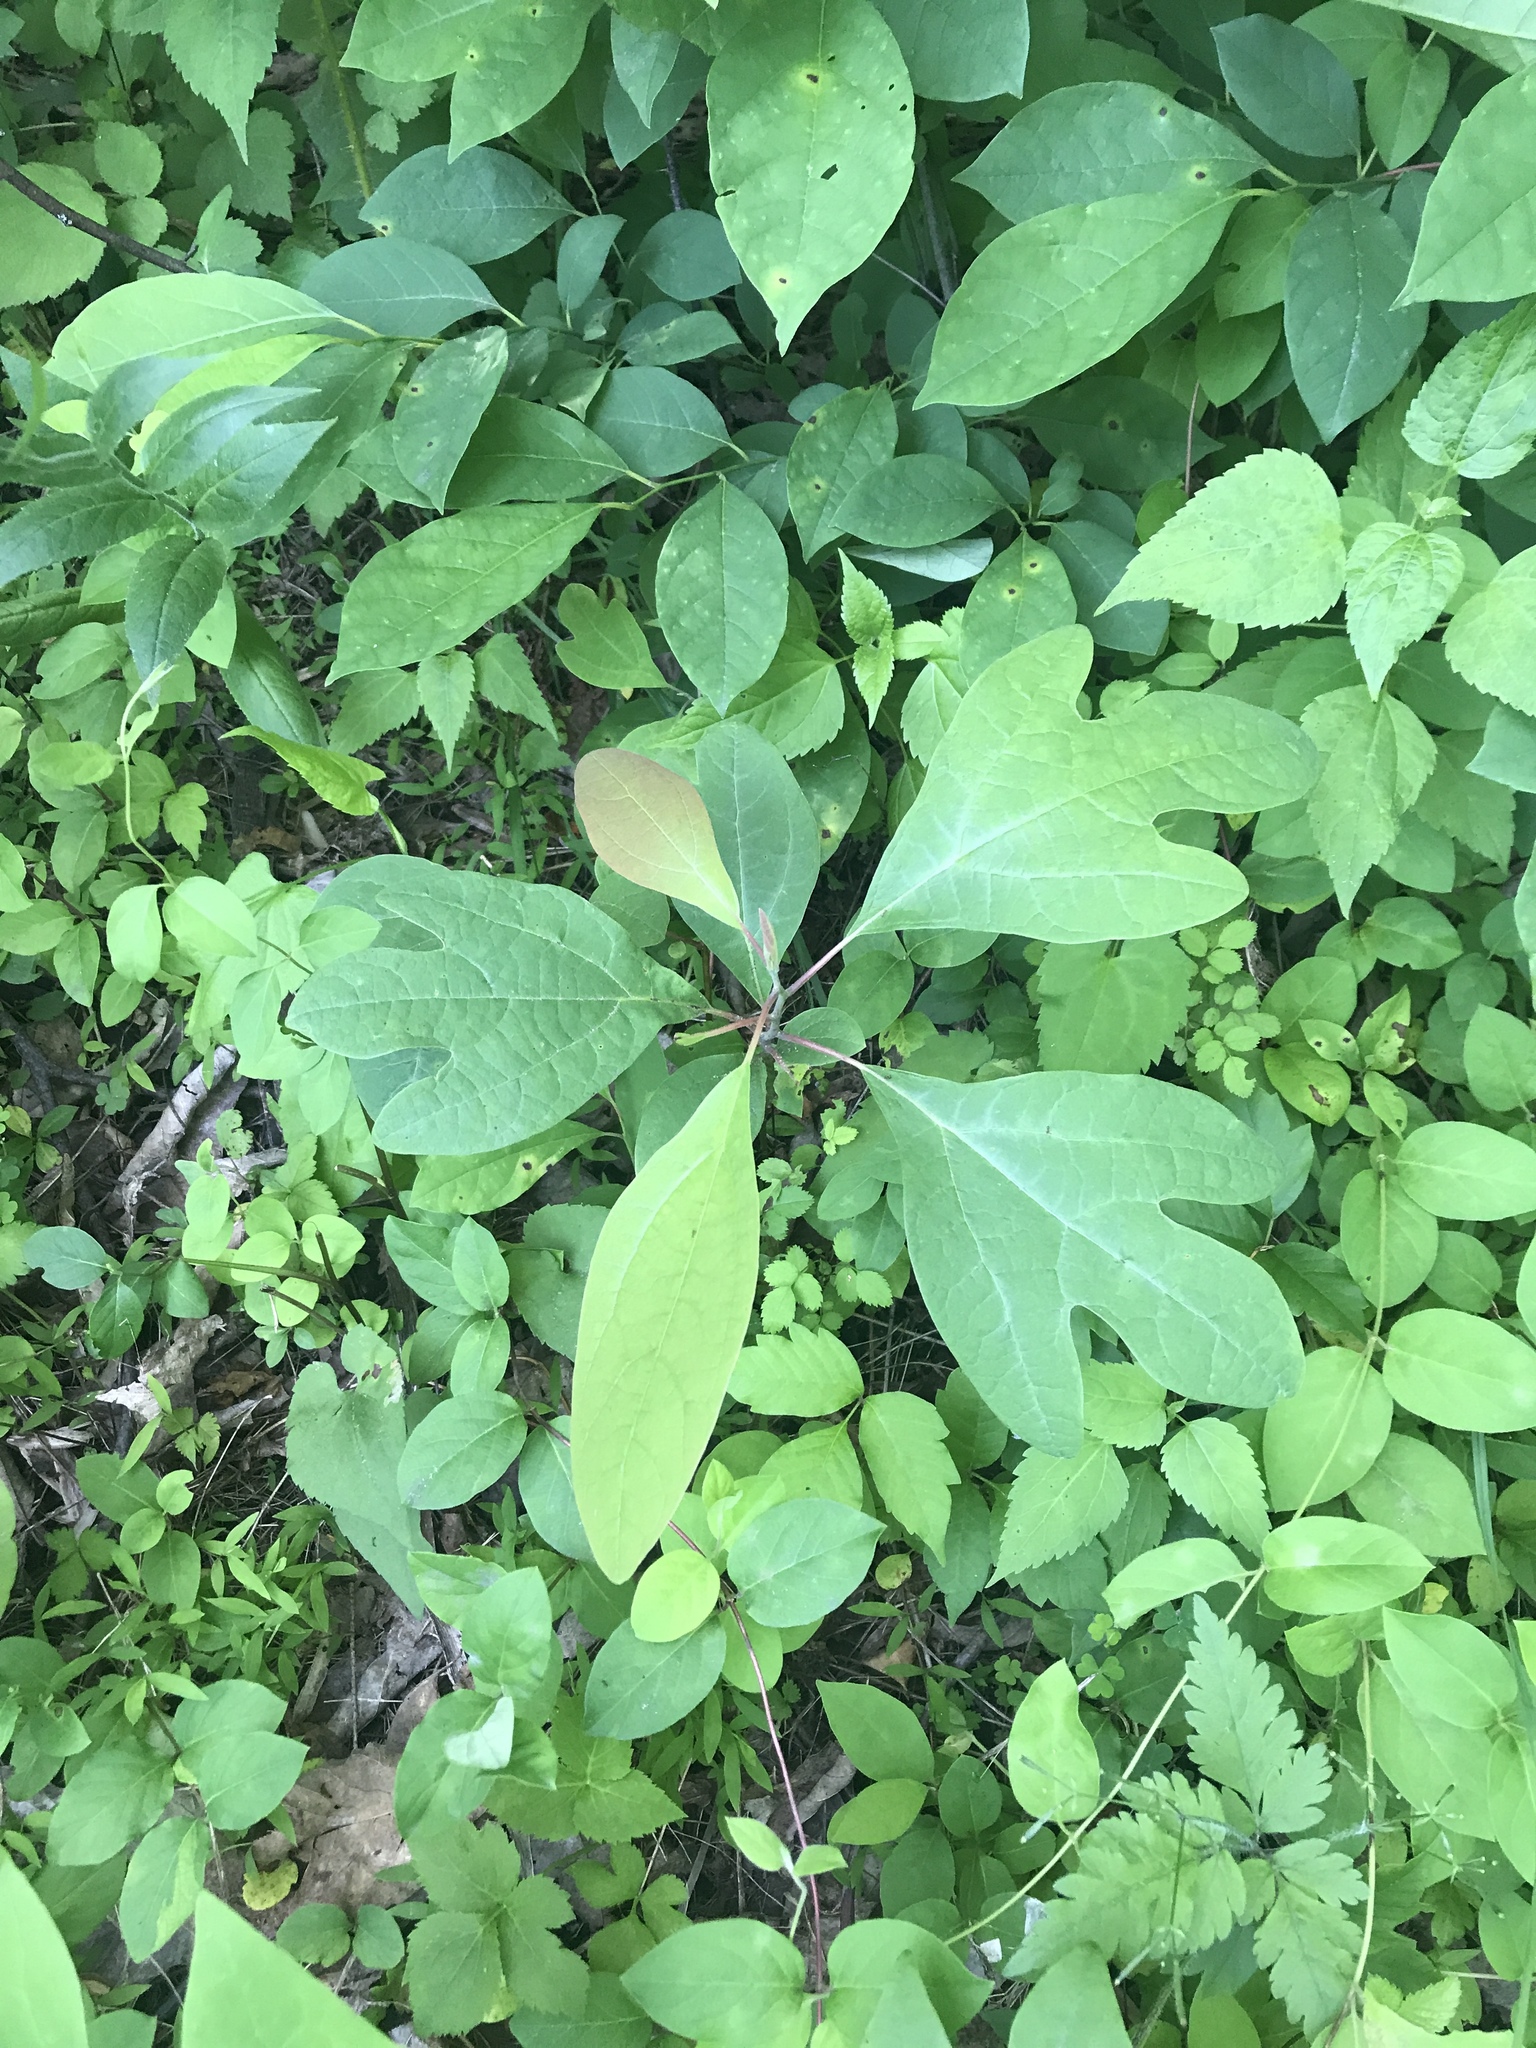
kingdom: Plantae
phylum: Tracheophyta
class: Magnoliopsida
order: Laurales
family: Lauraceae
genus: Sassafras
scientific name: Sassafras albidum
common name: Sassafras
